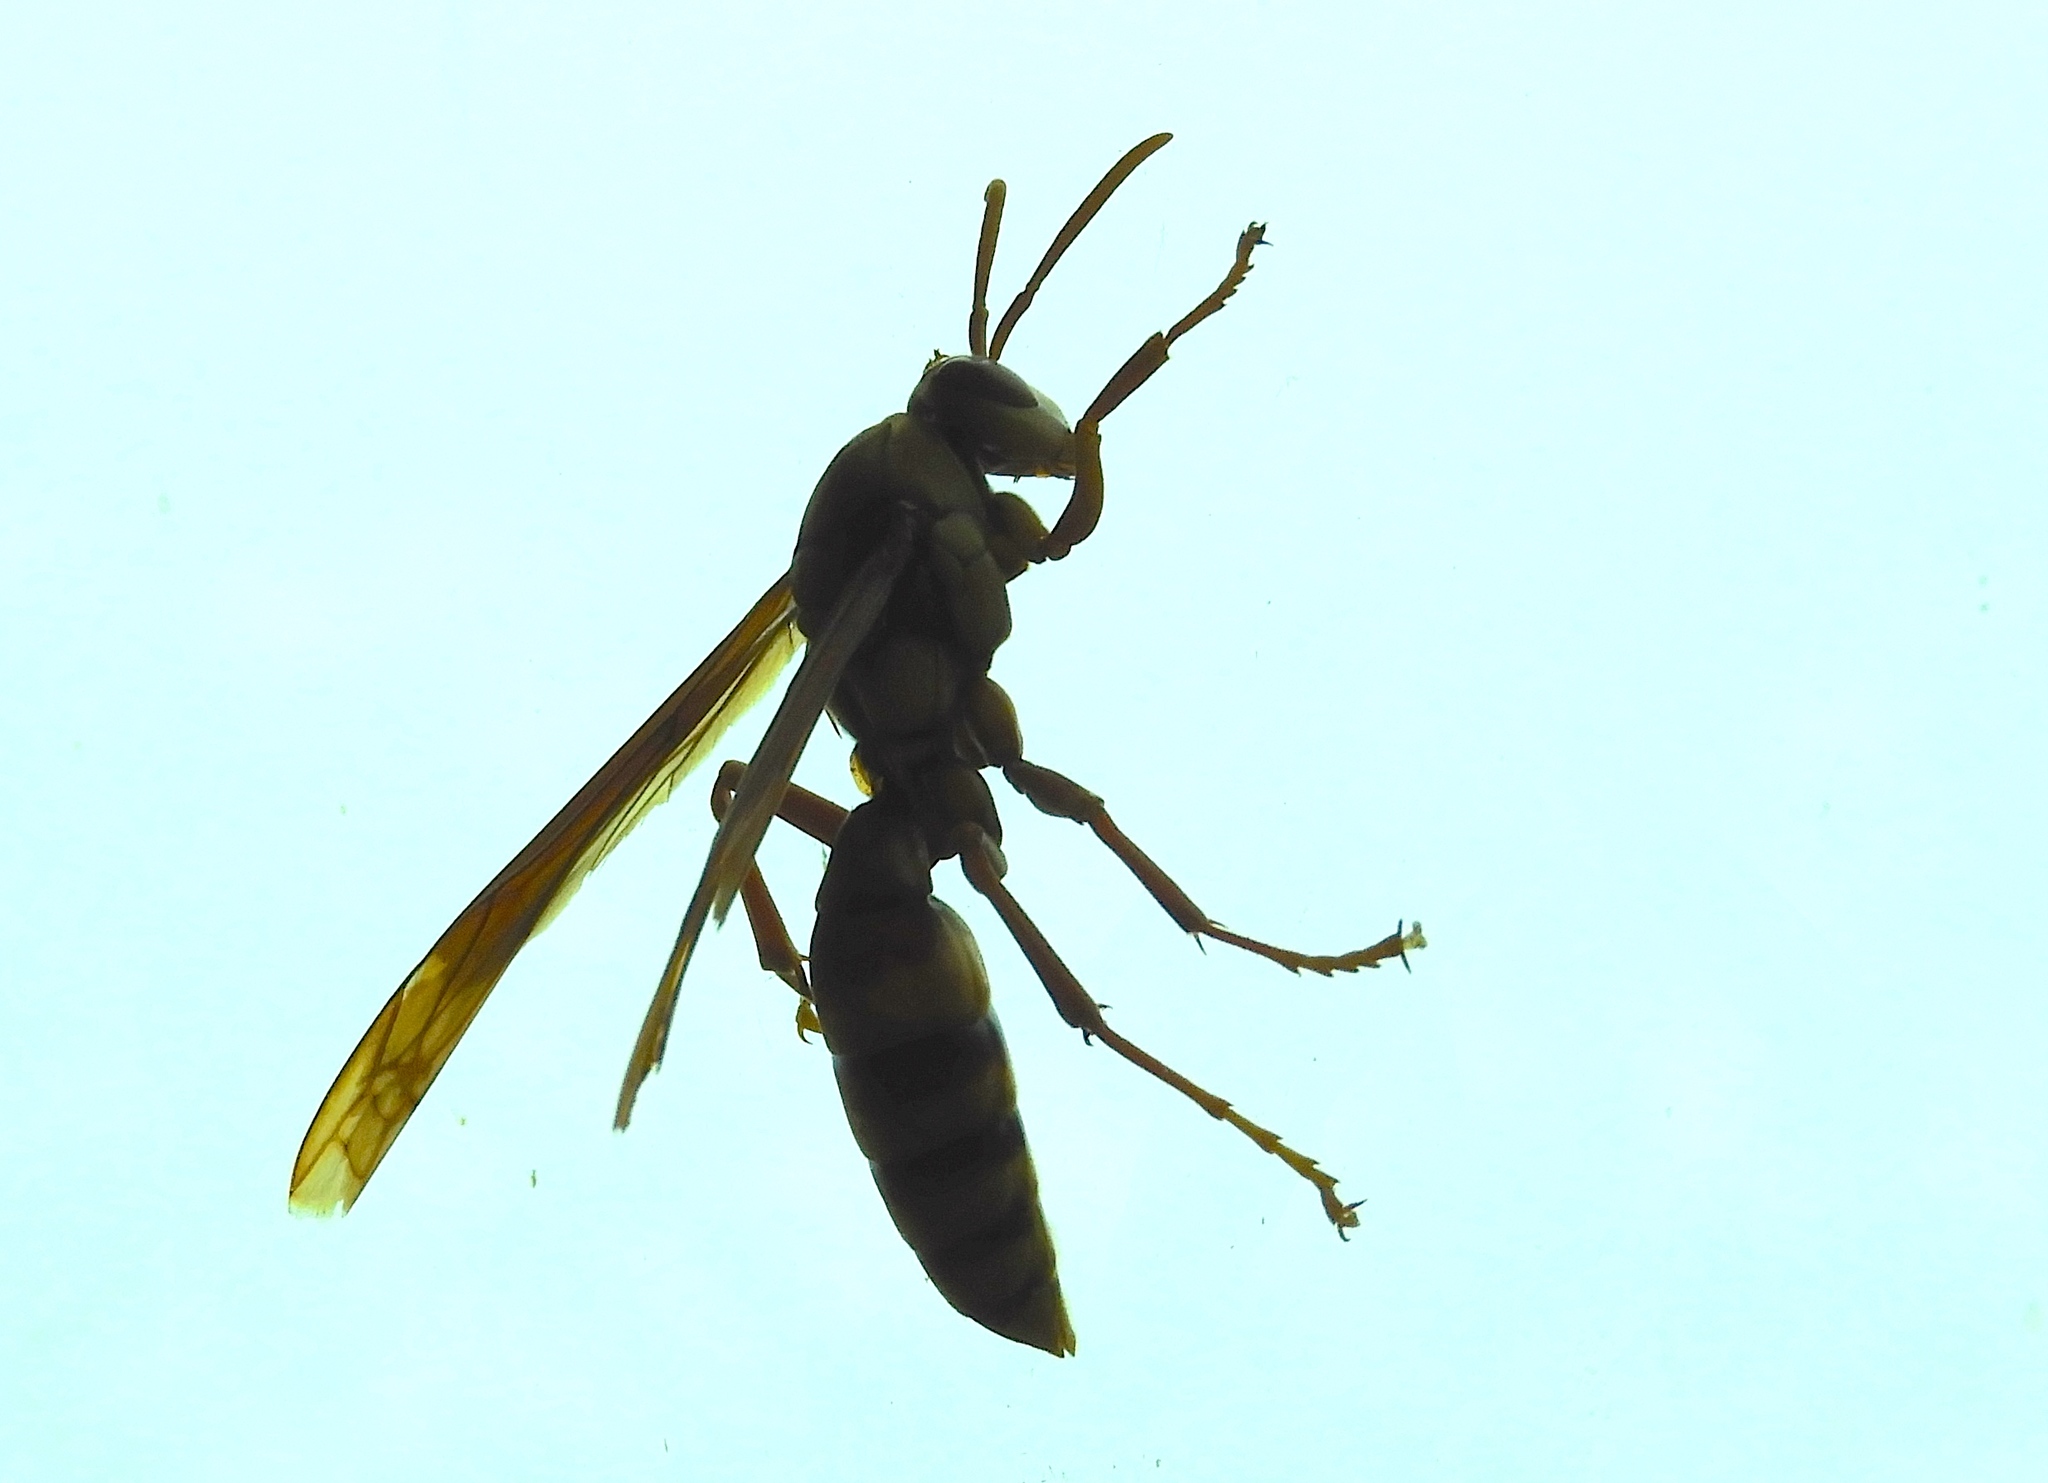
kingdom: Animalia
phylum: Arthropoda
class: Insecta
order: Hymenoptera
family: Eumenidae
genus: Polistes
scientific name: Polistes carnifex
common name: Paper wasp
